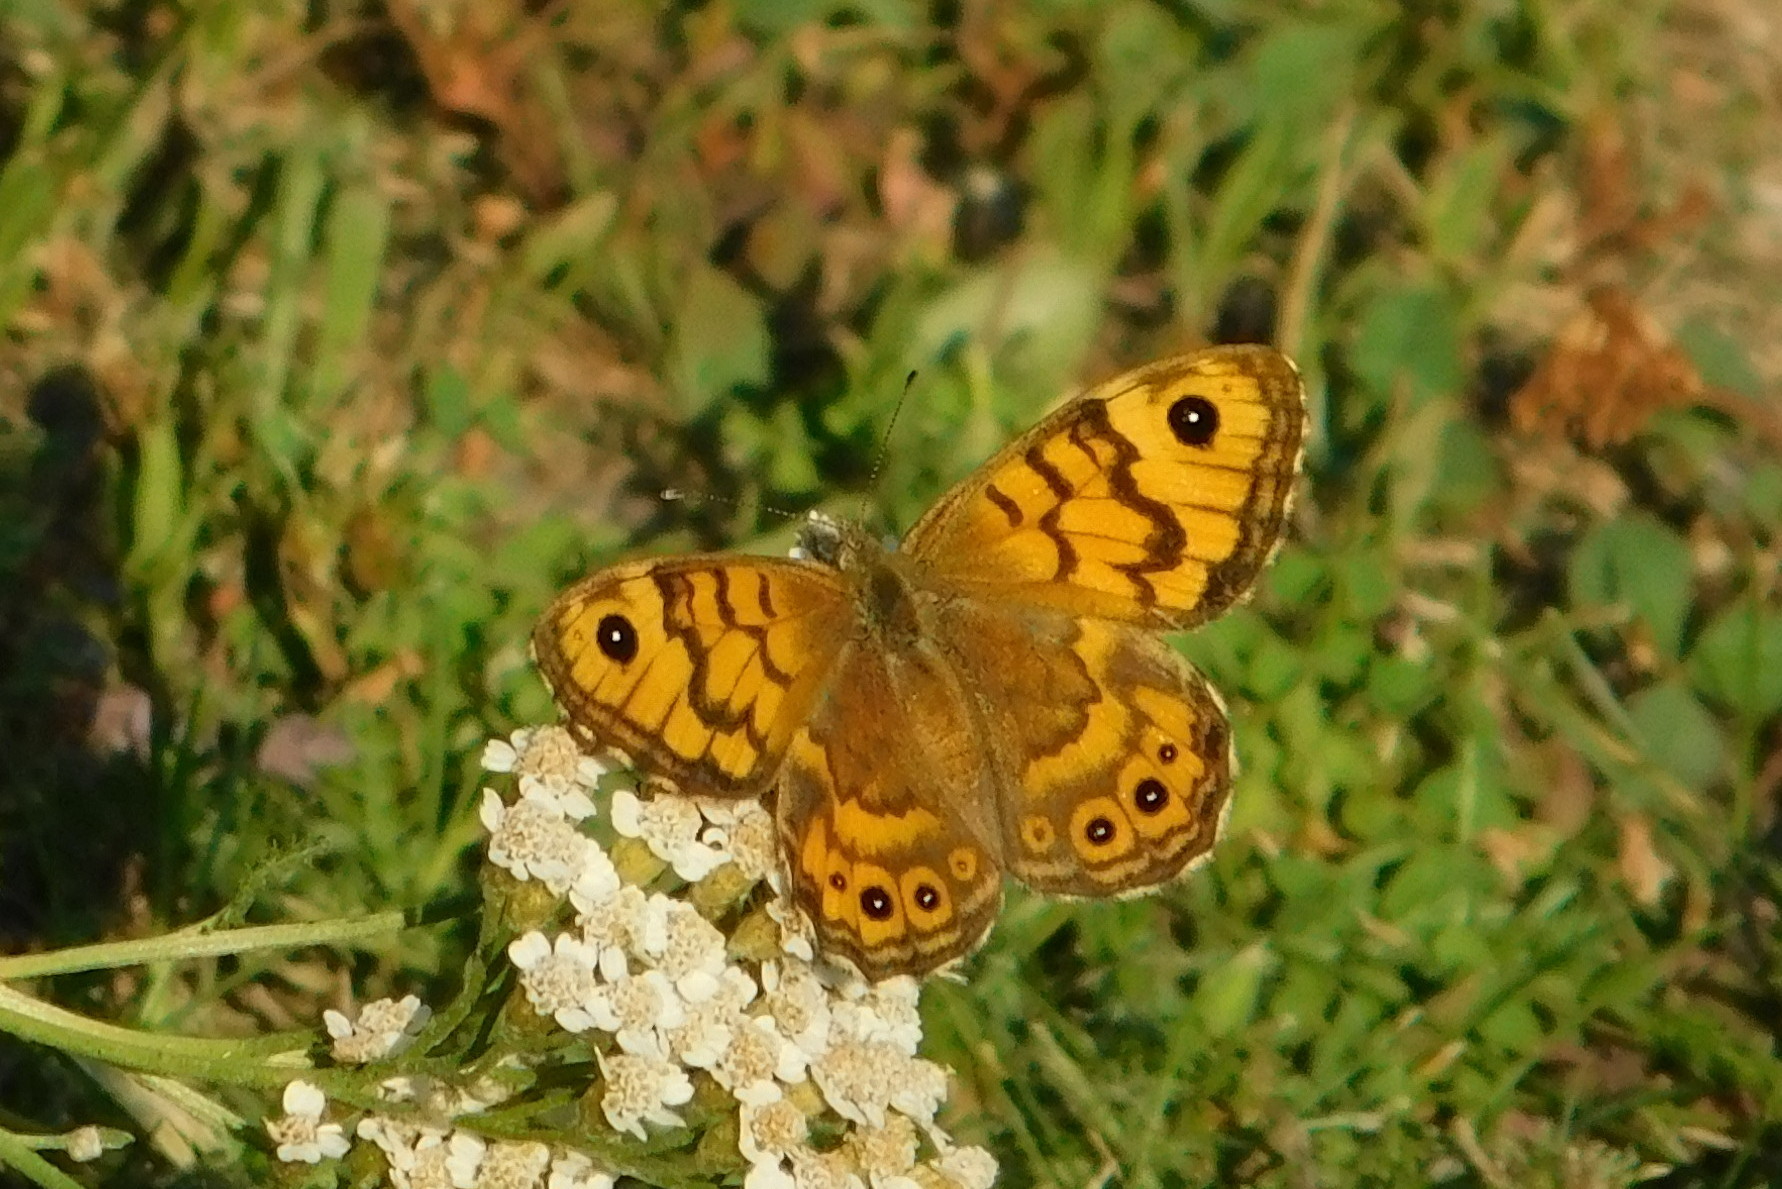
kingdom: Animalia
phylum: Arthropoda
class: Insecta
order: Lepidoptera
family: Nymphalidae
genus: Pararge
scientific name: Pararge Lasiommata megera
